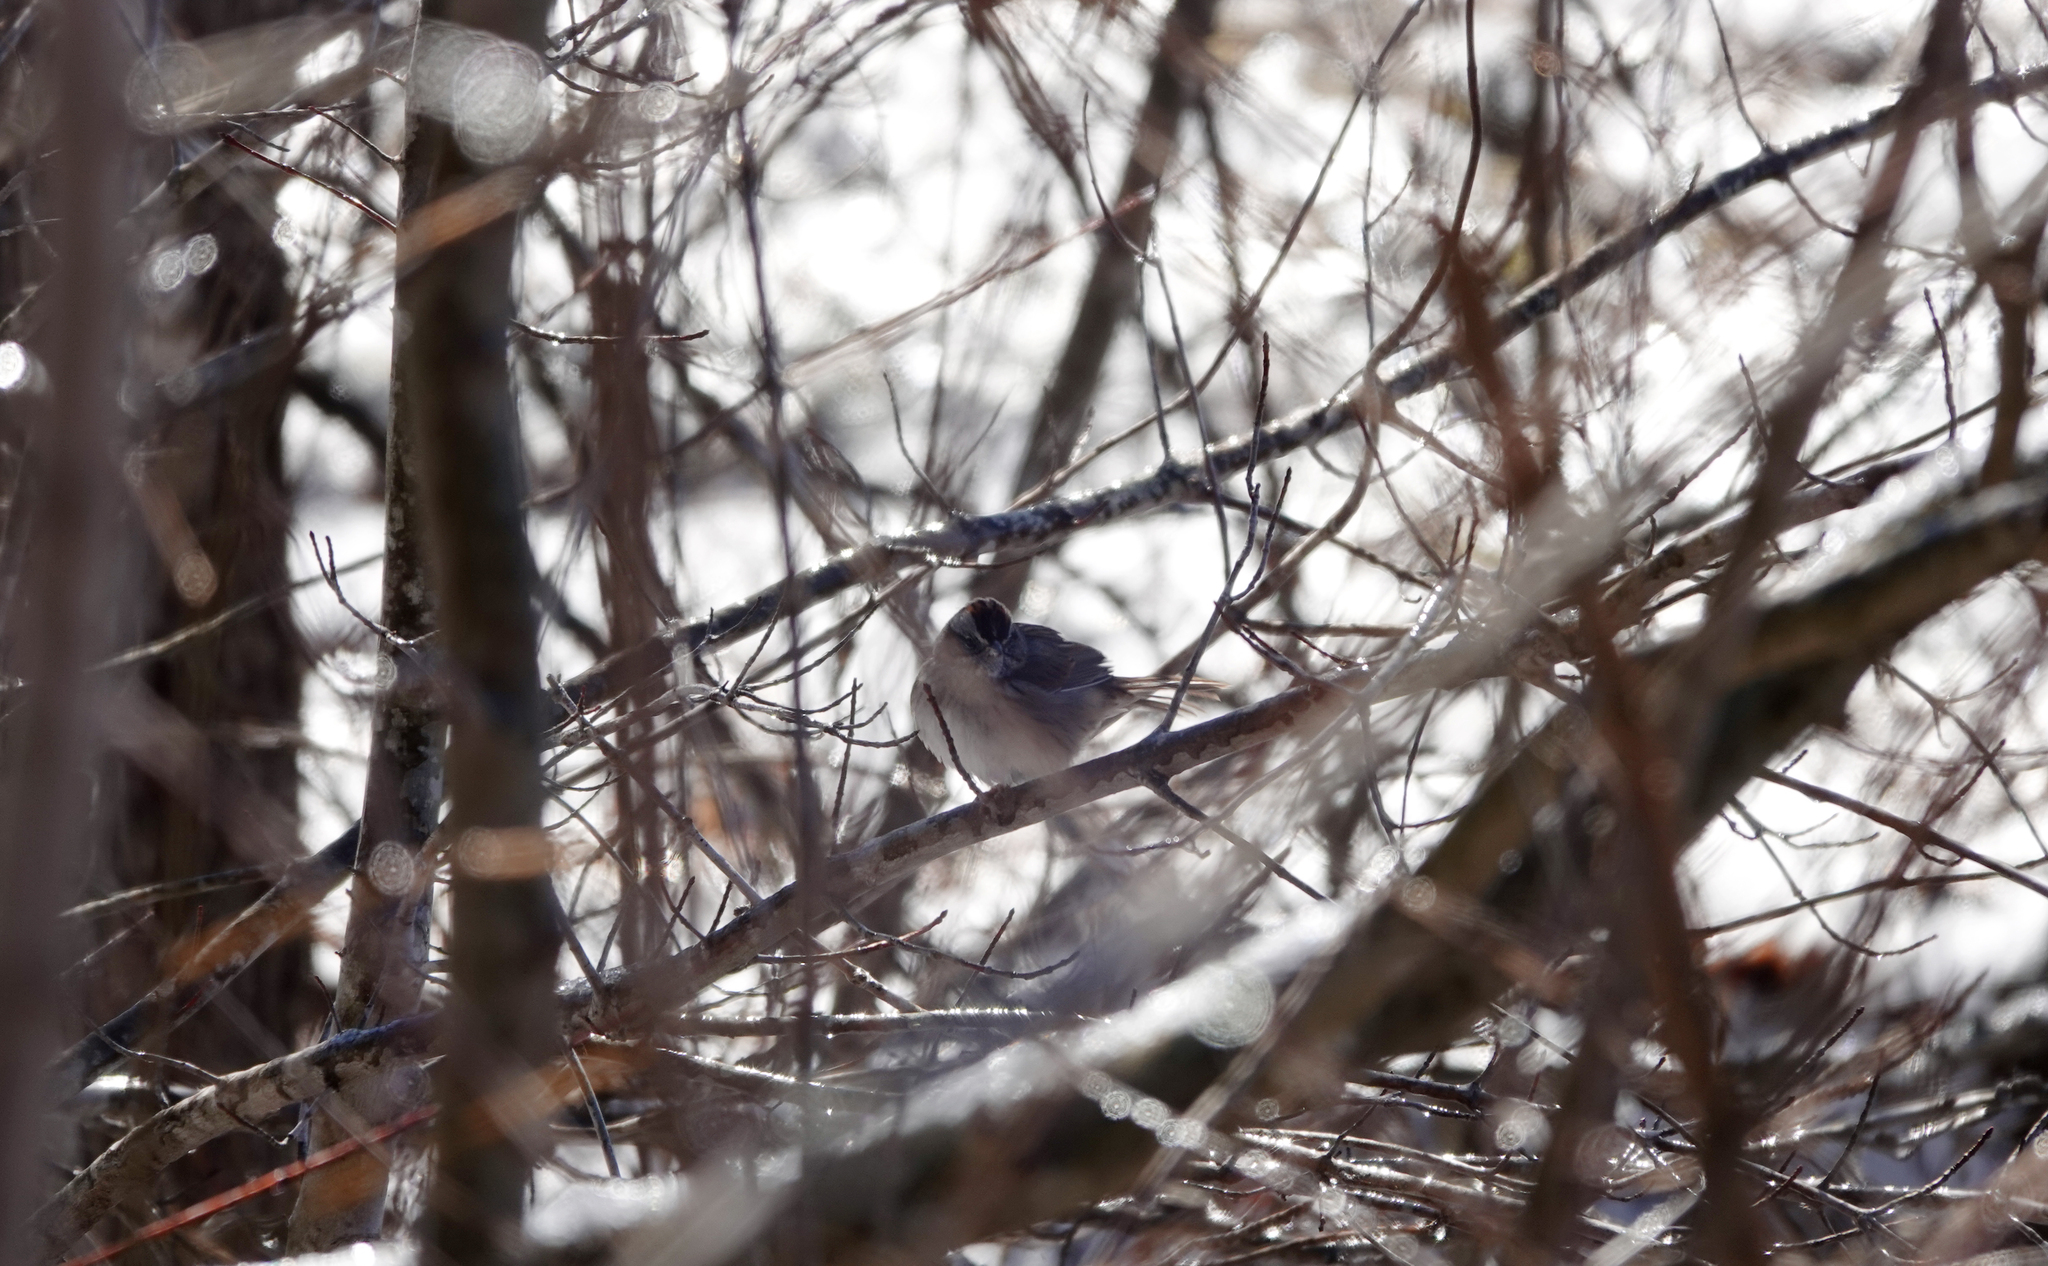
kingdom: Animalia
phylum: Chordata
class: Aves
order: Passeriformes
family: Passerellidae
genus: Melospiza
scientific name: Melospiza georgiana
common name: Swamp sparrow
